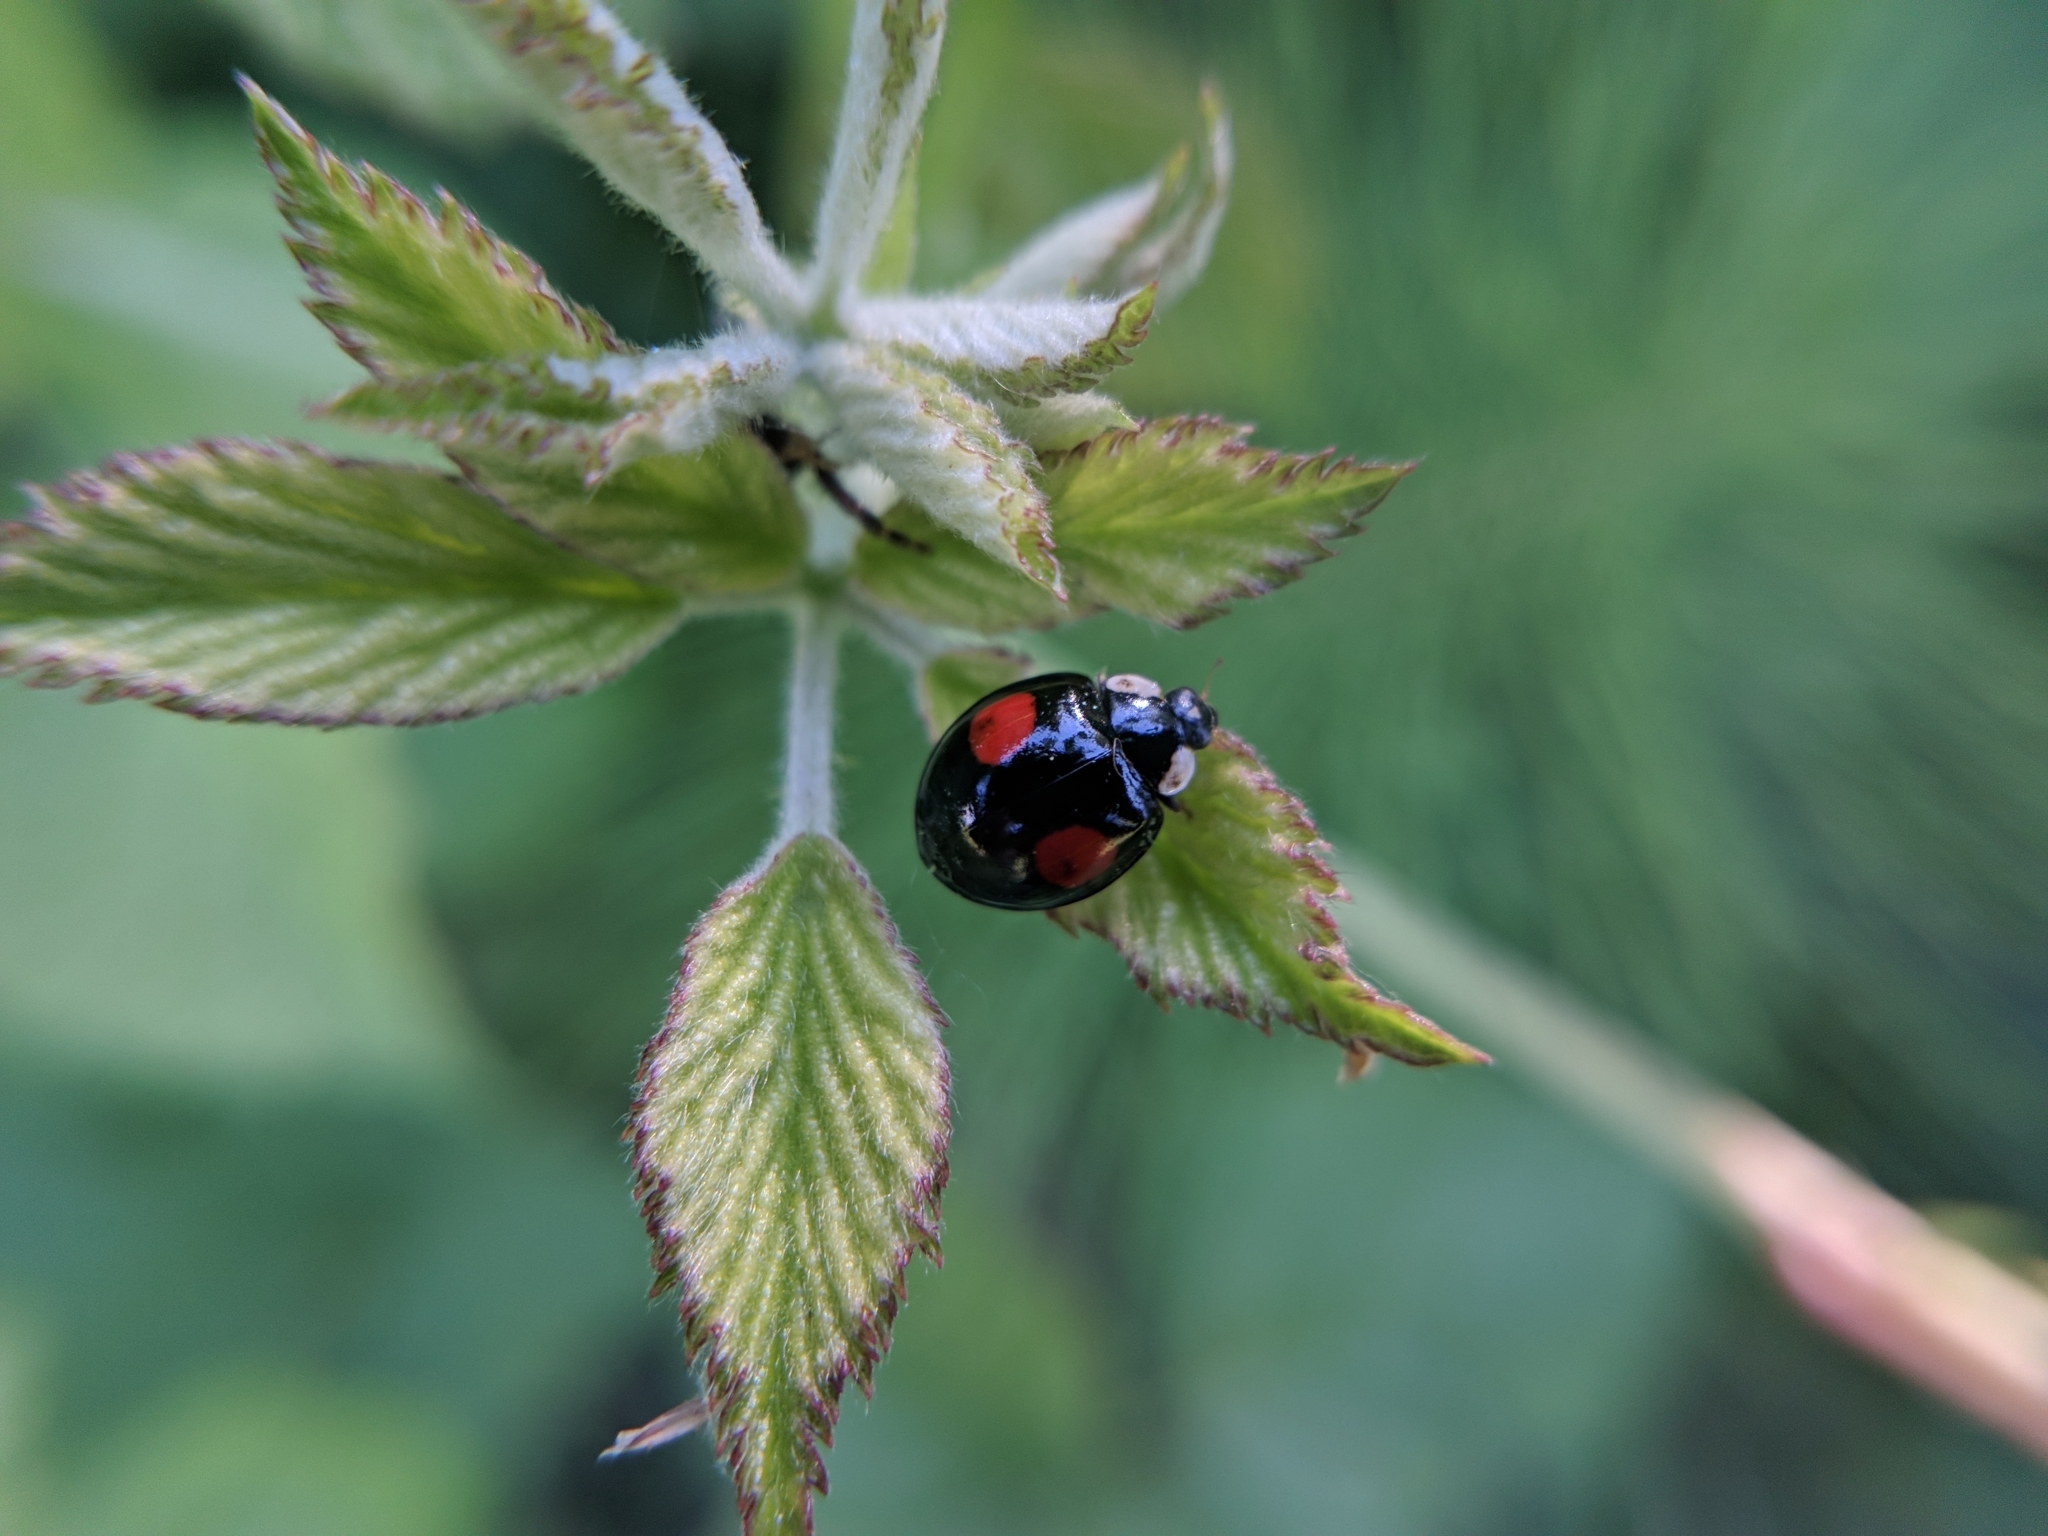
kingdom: Animalia
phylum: Arthropoda
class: Insecta
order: Coleoptera
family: Coccinellidae
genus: Harmonia
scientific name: Harmonia axyridis
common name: Harlequin ladybird
